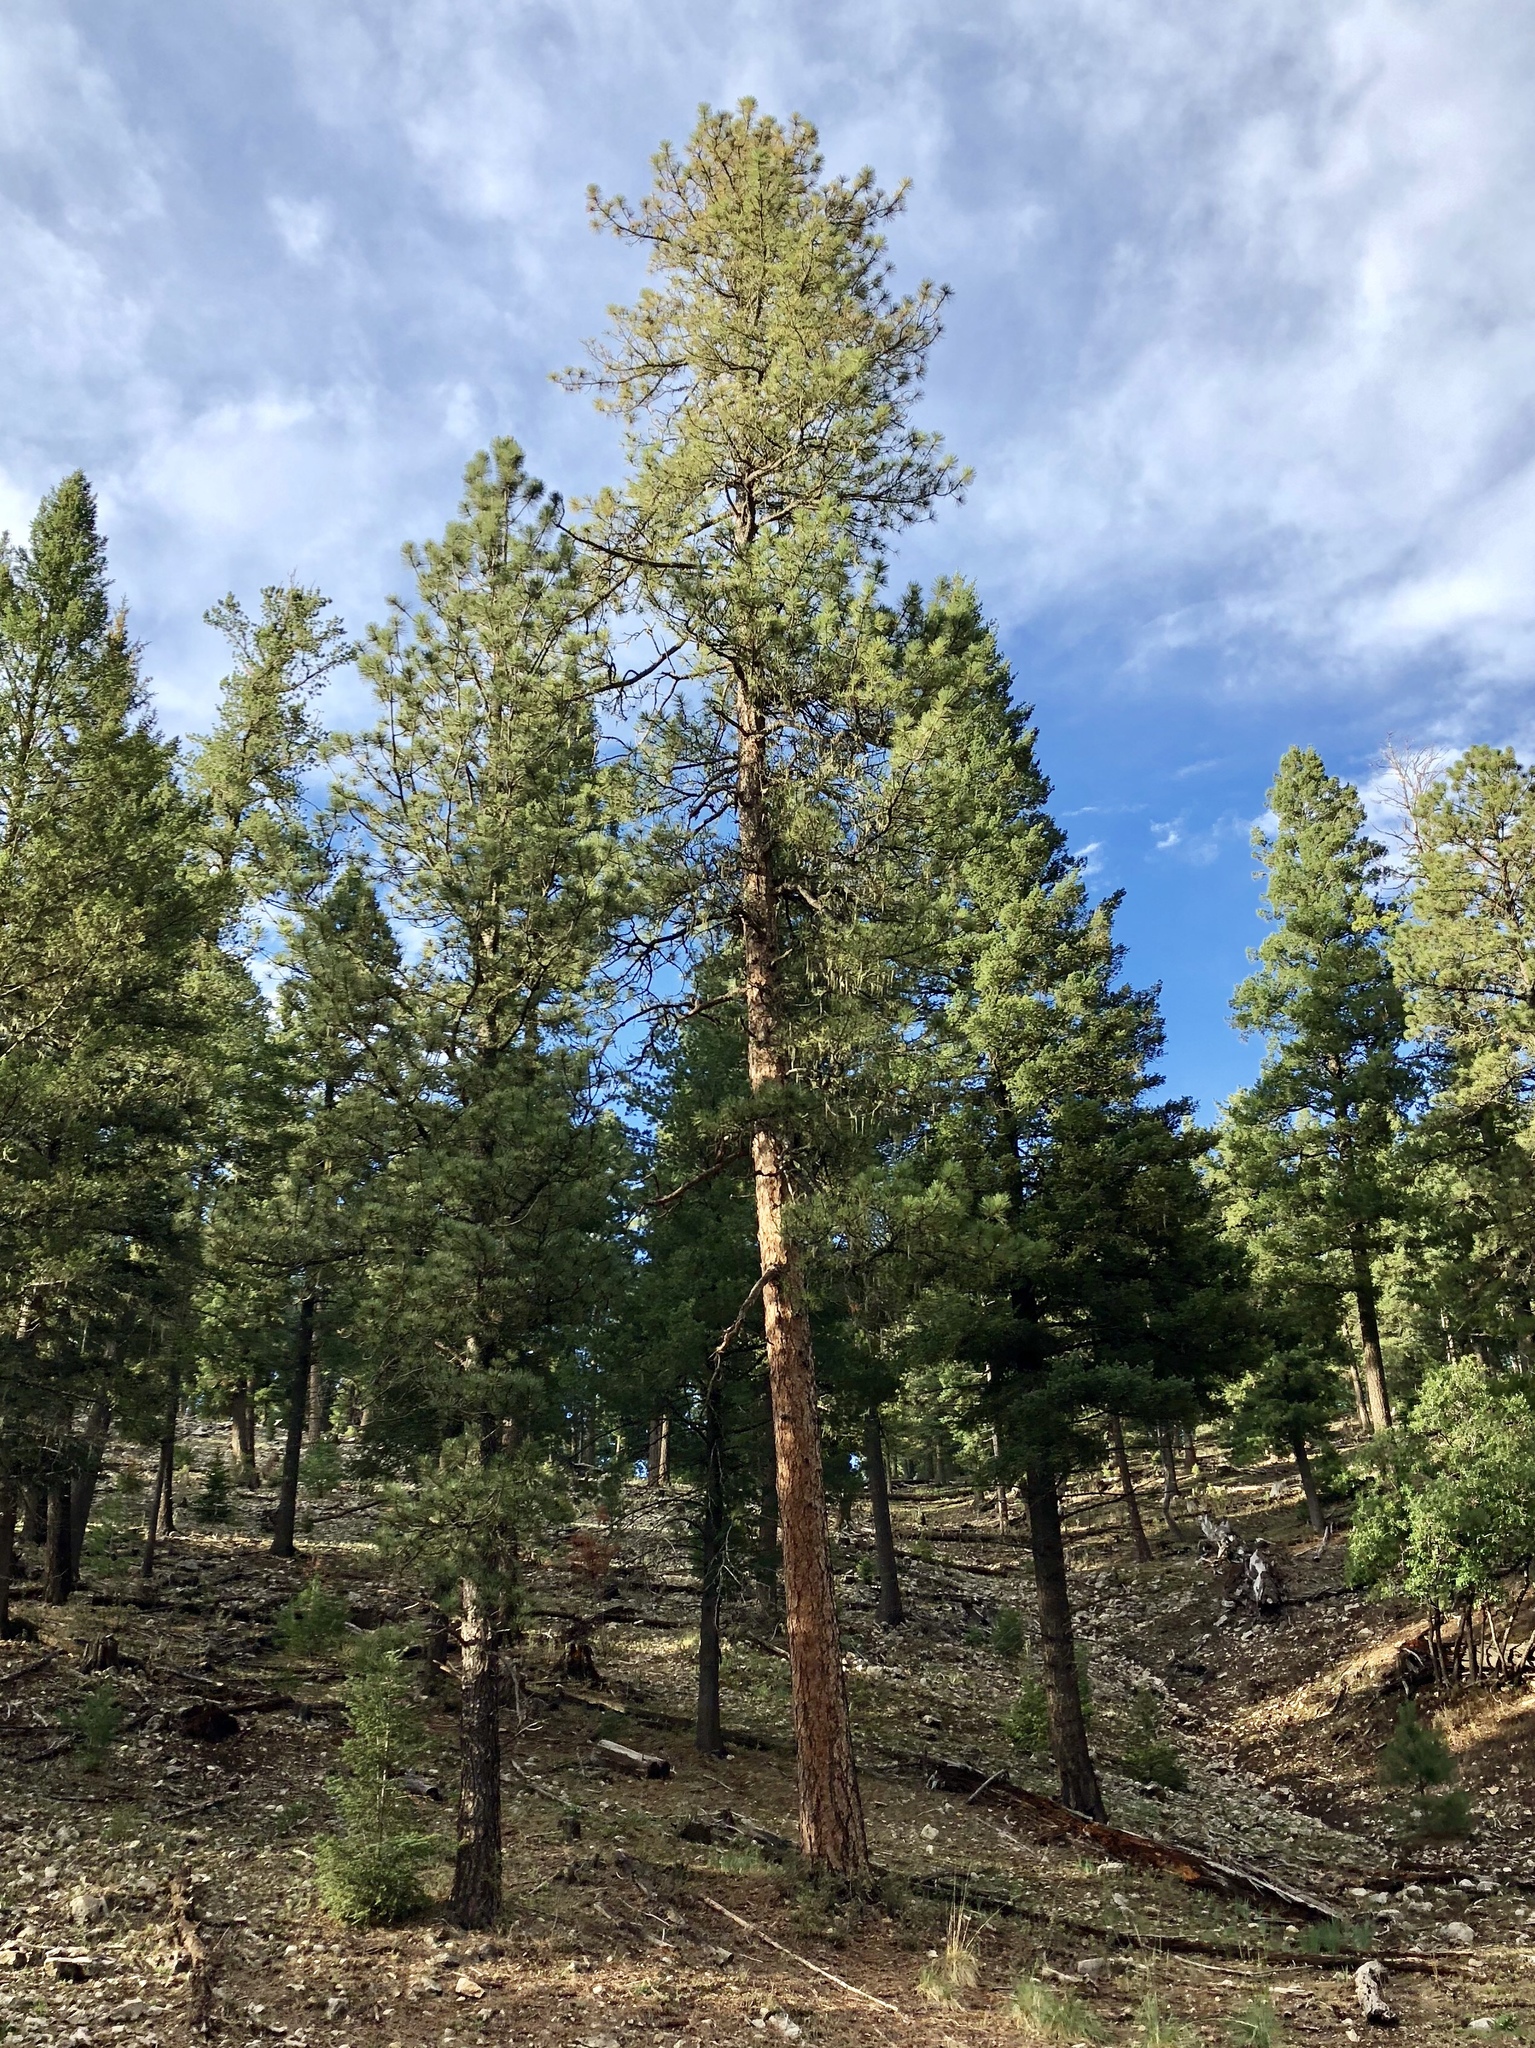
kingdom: Plantae
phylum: Tracheophyta
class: Pinopsida
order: Pinales
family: Pinaceae
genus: Pinus
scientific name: Pinus ponderosa
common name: Western yellow-pine
